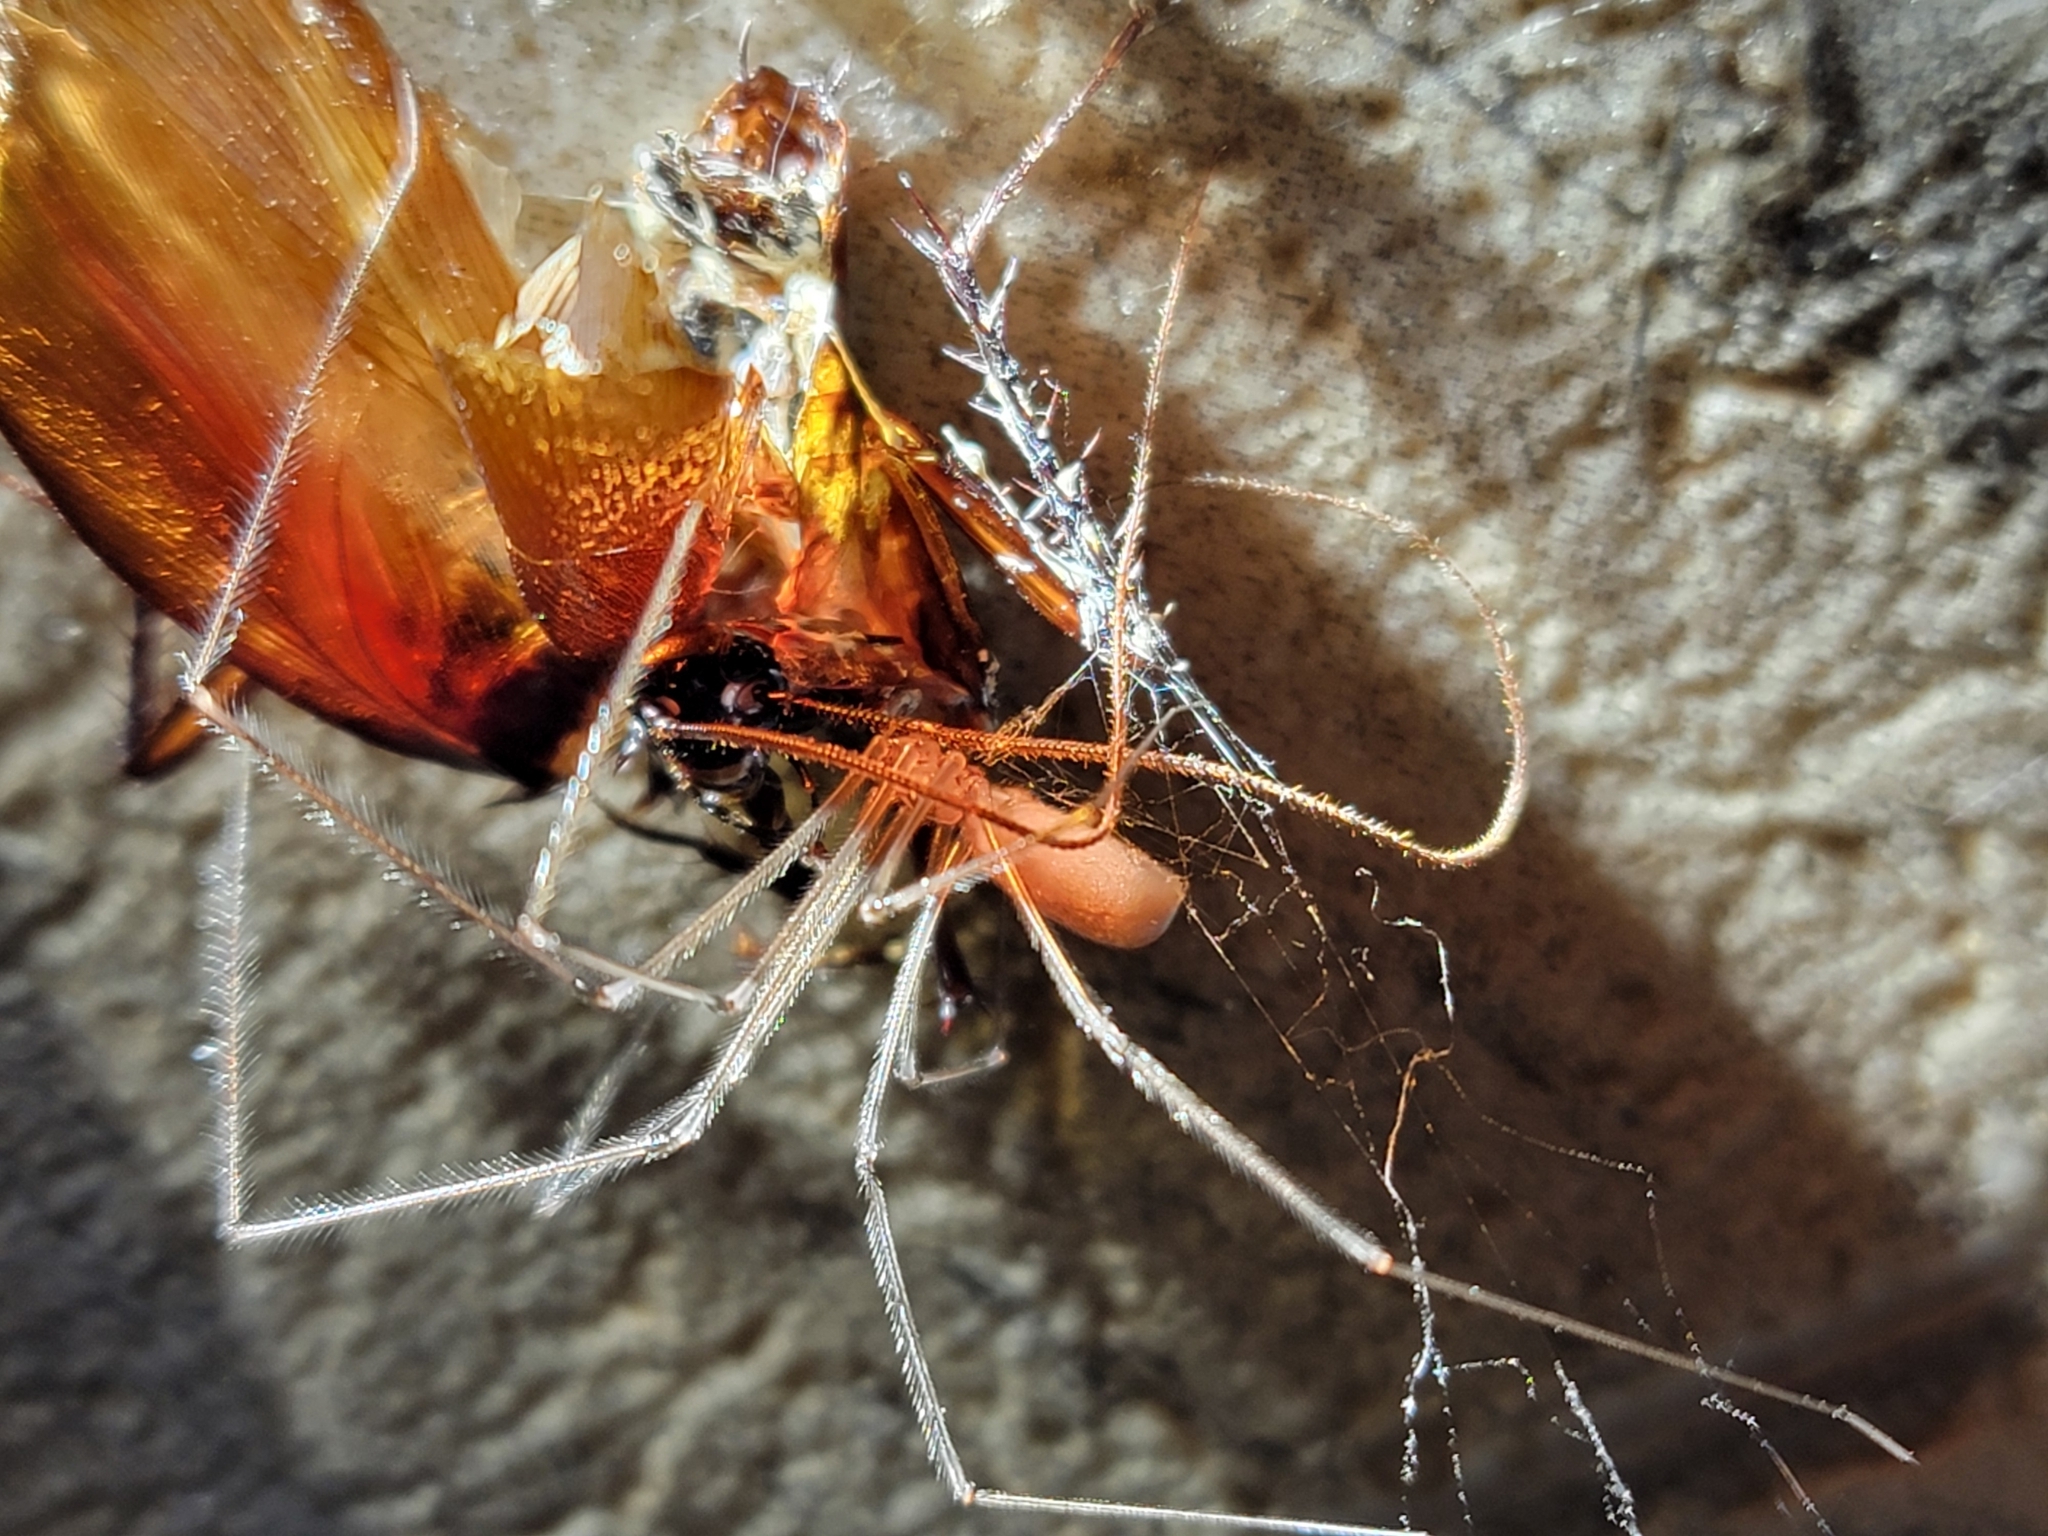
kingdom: Animalia
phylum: Arthropoda
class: Arachnida
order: Araneae
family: Pholcidae
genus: Pholcus
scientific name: Pholcus phalangioides
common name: Longbodied cellar spider
